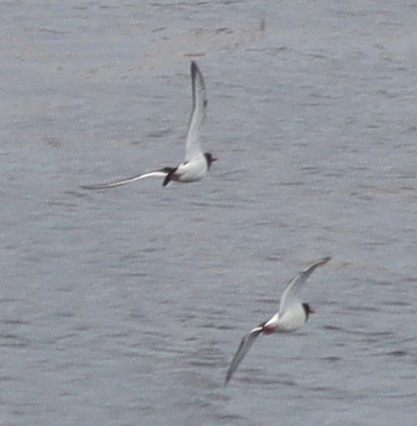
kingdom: Animalia
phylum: Chordata
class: Aves
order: Charadriiformes
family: Haematopodidae
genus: Haematopus
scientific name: Haematopus ostralegus
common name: Eurasian oystercatcher
